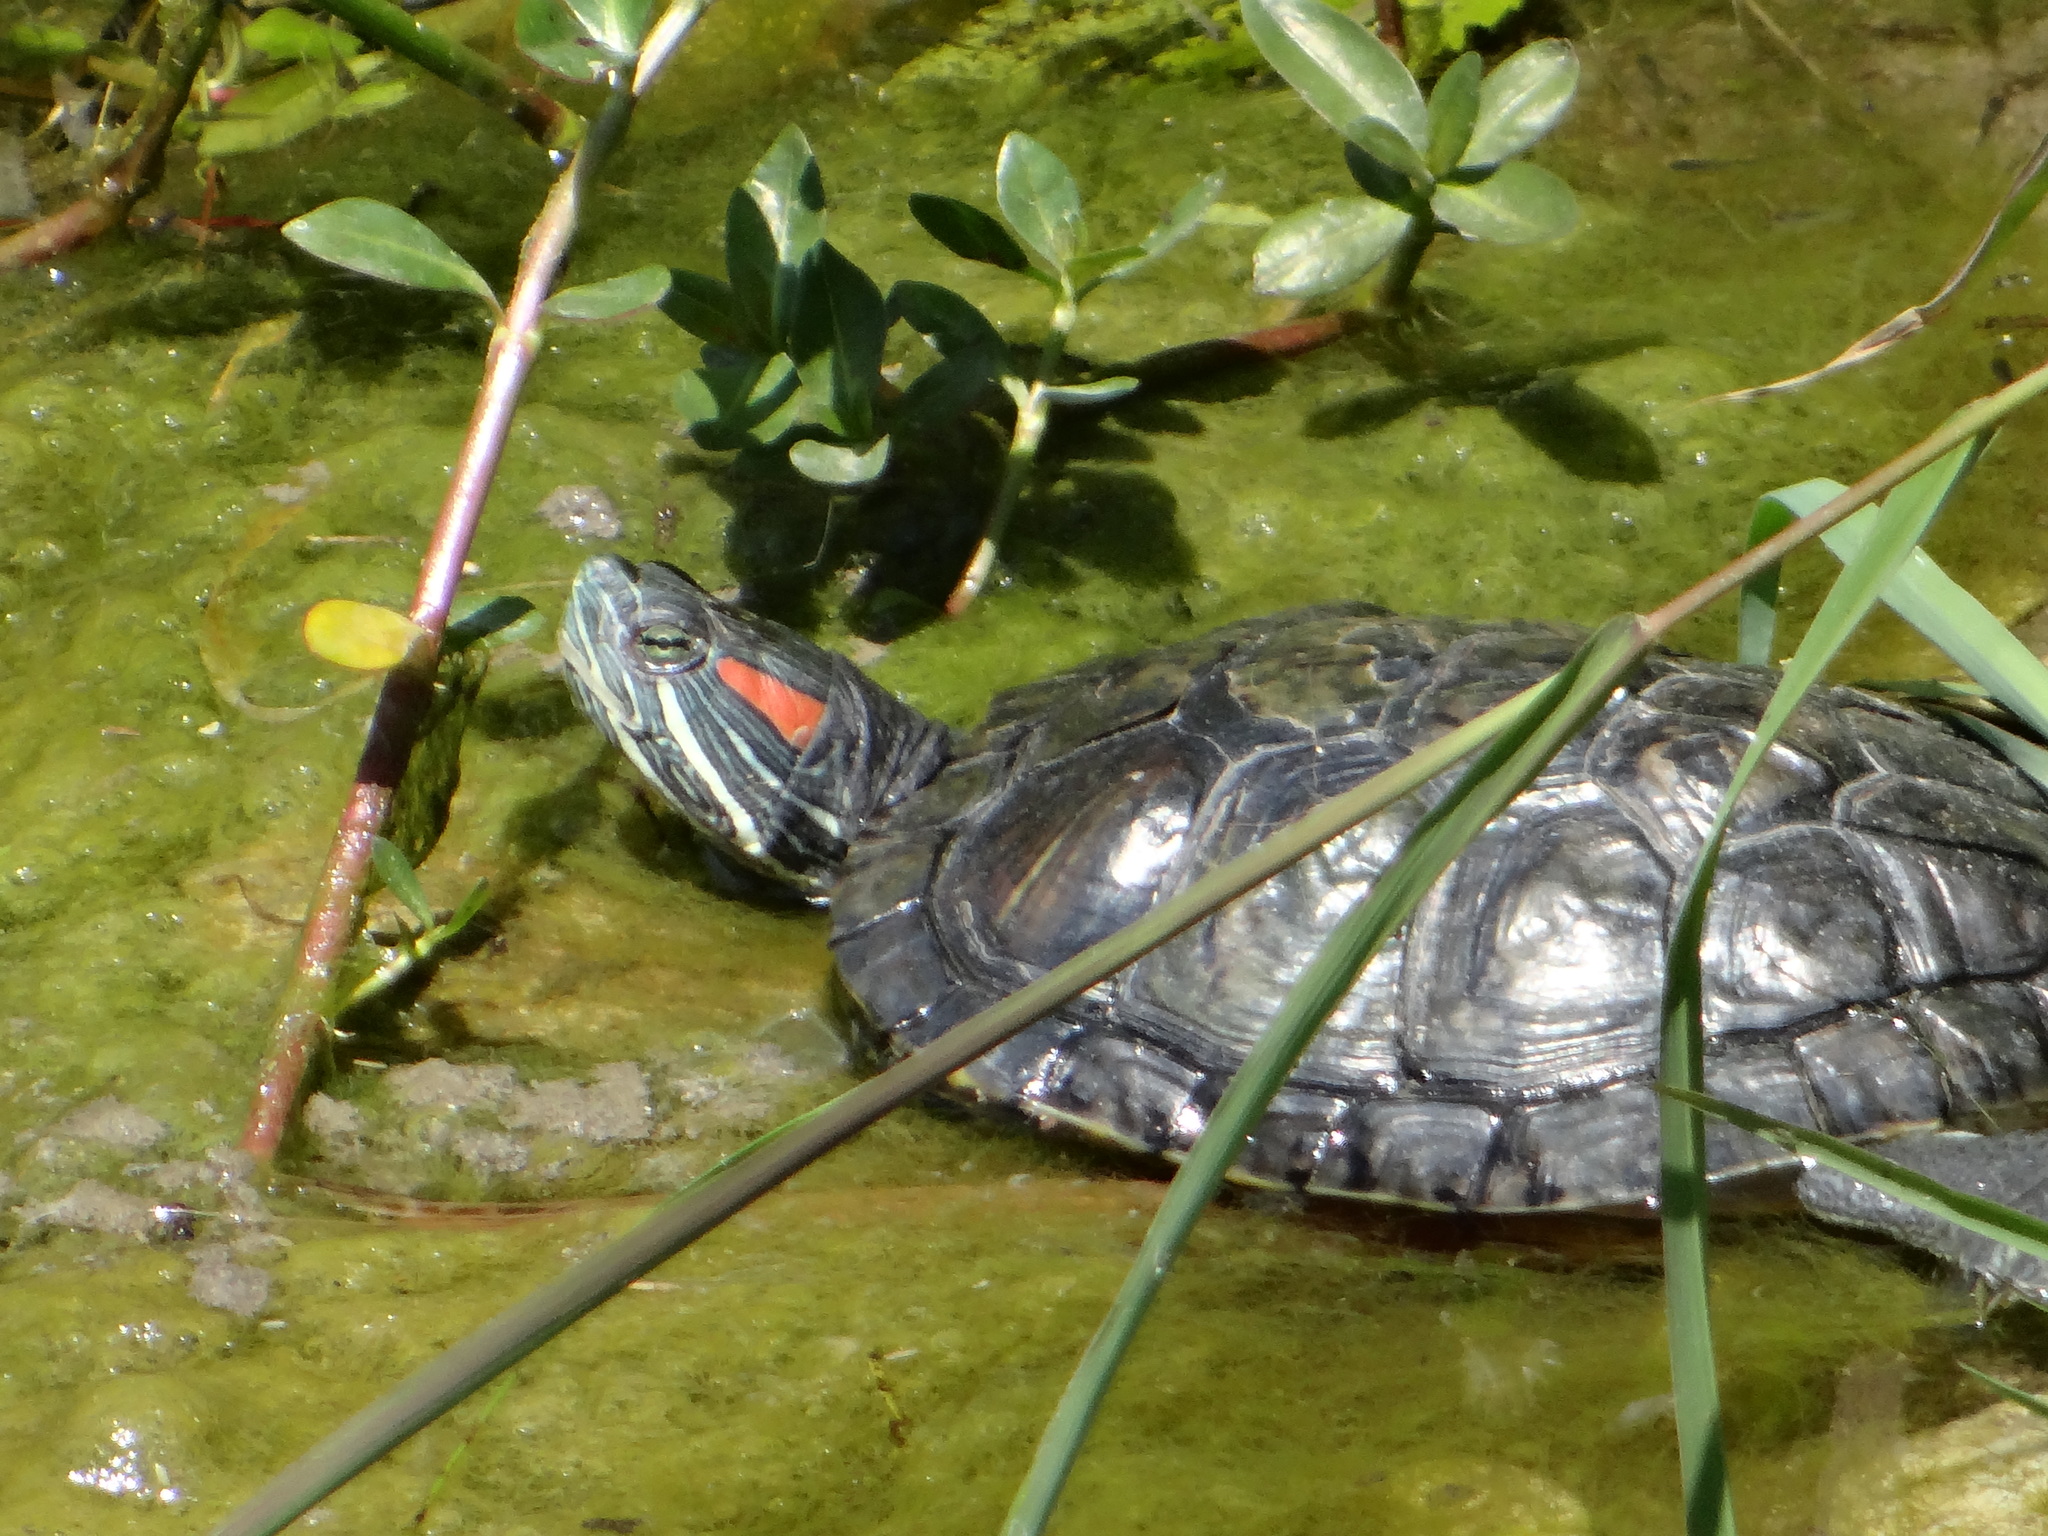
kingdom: Animalia
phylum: Chordata
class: Testudines
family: Emydidae
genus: Trachemys
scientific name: Trachemys scripta
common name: Slider
